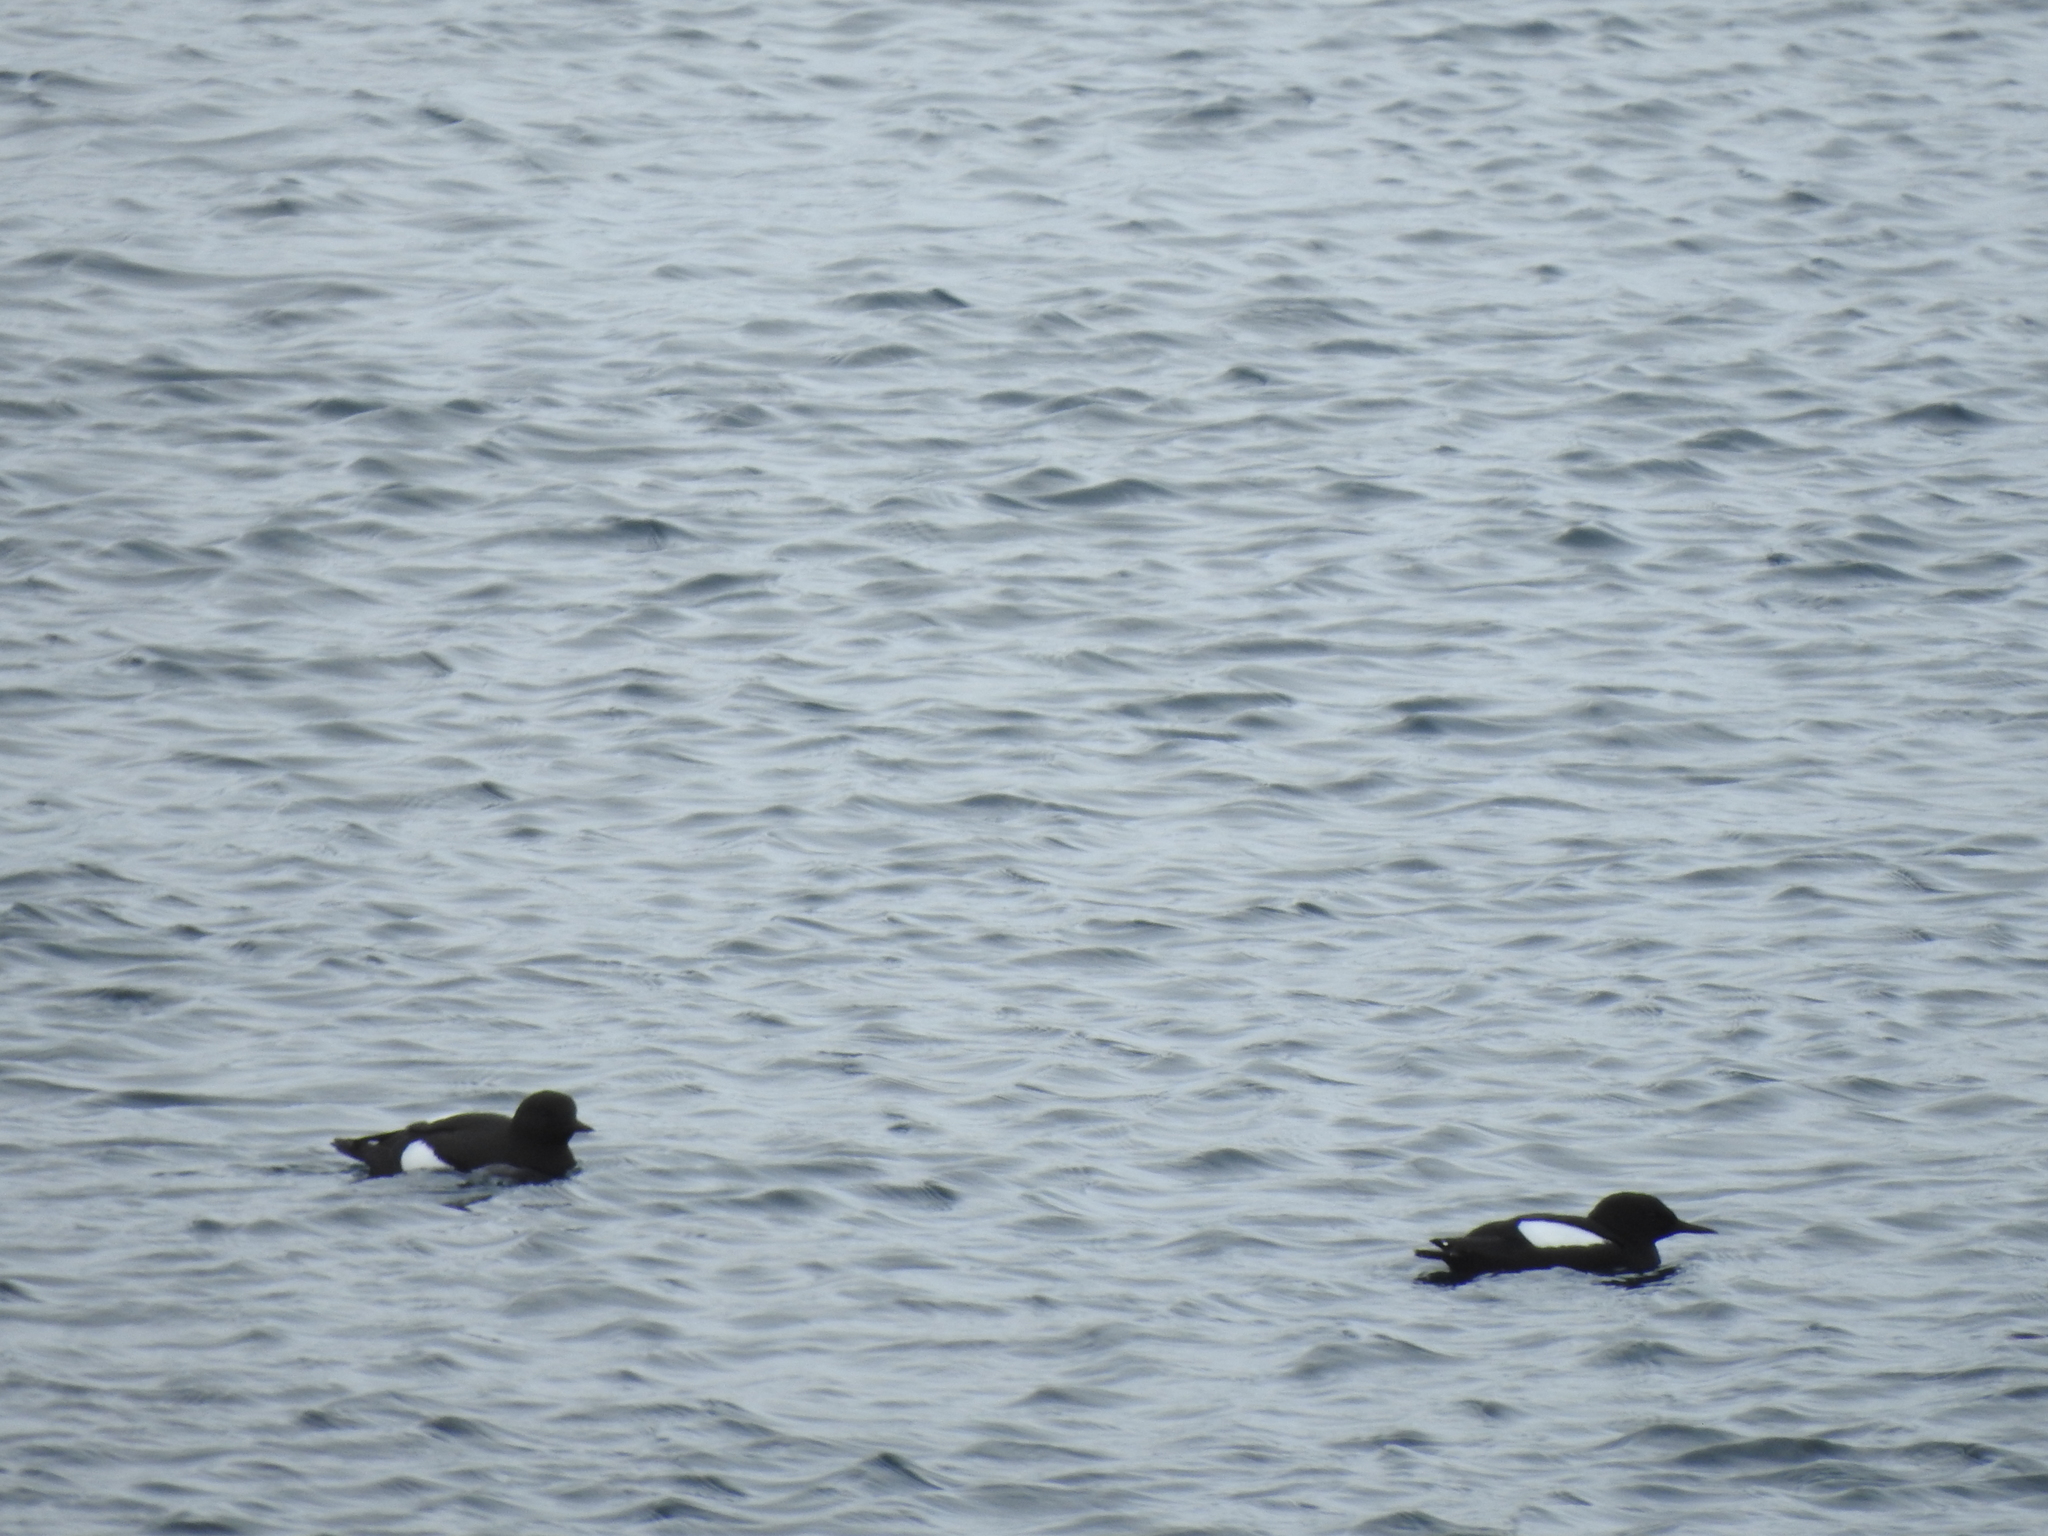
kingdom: Animalia
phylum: Chordata
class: Aves
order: Charadriiformes
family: Alcidae
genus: Cepphus
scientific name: Cepphus grylle
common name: Black guillemot
